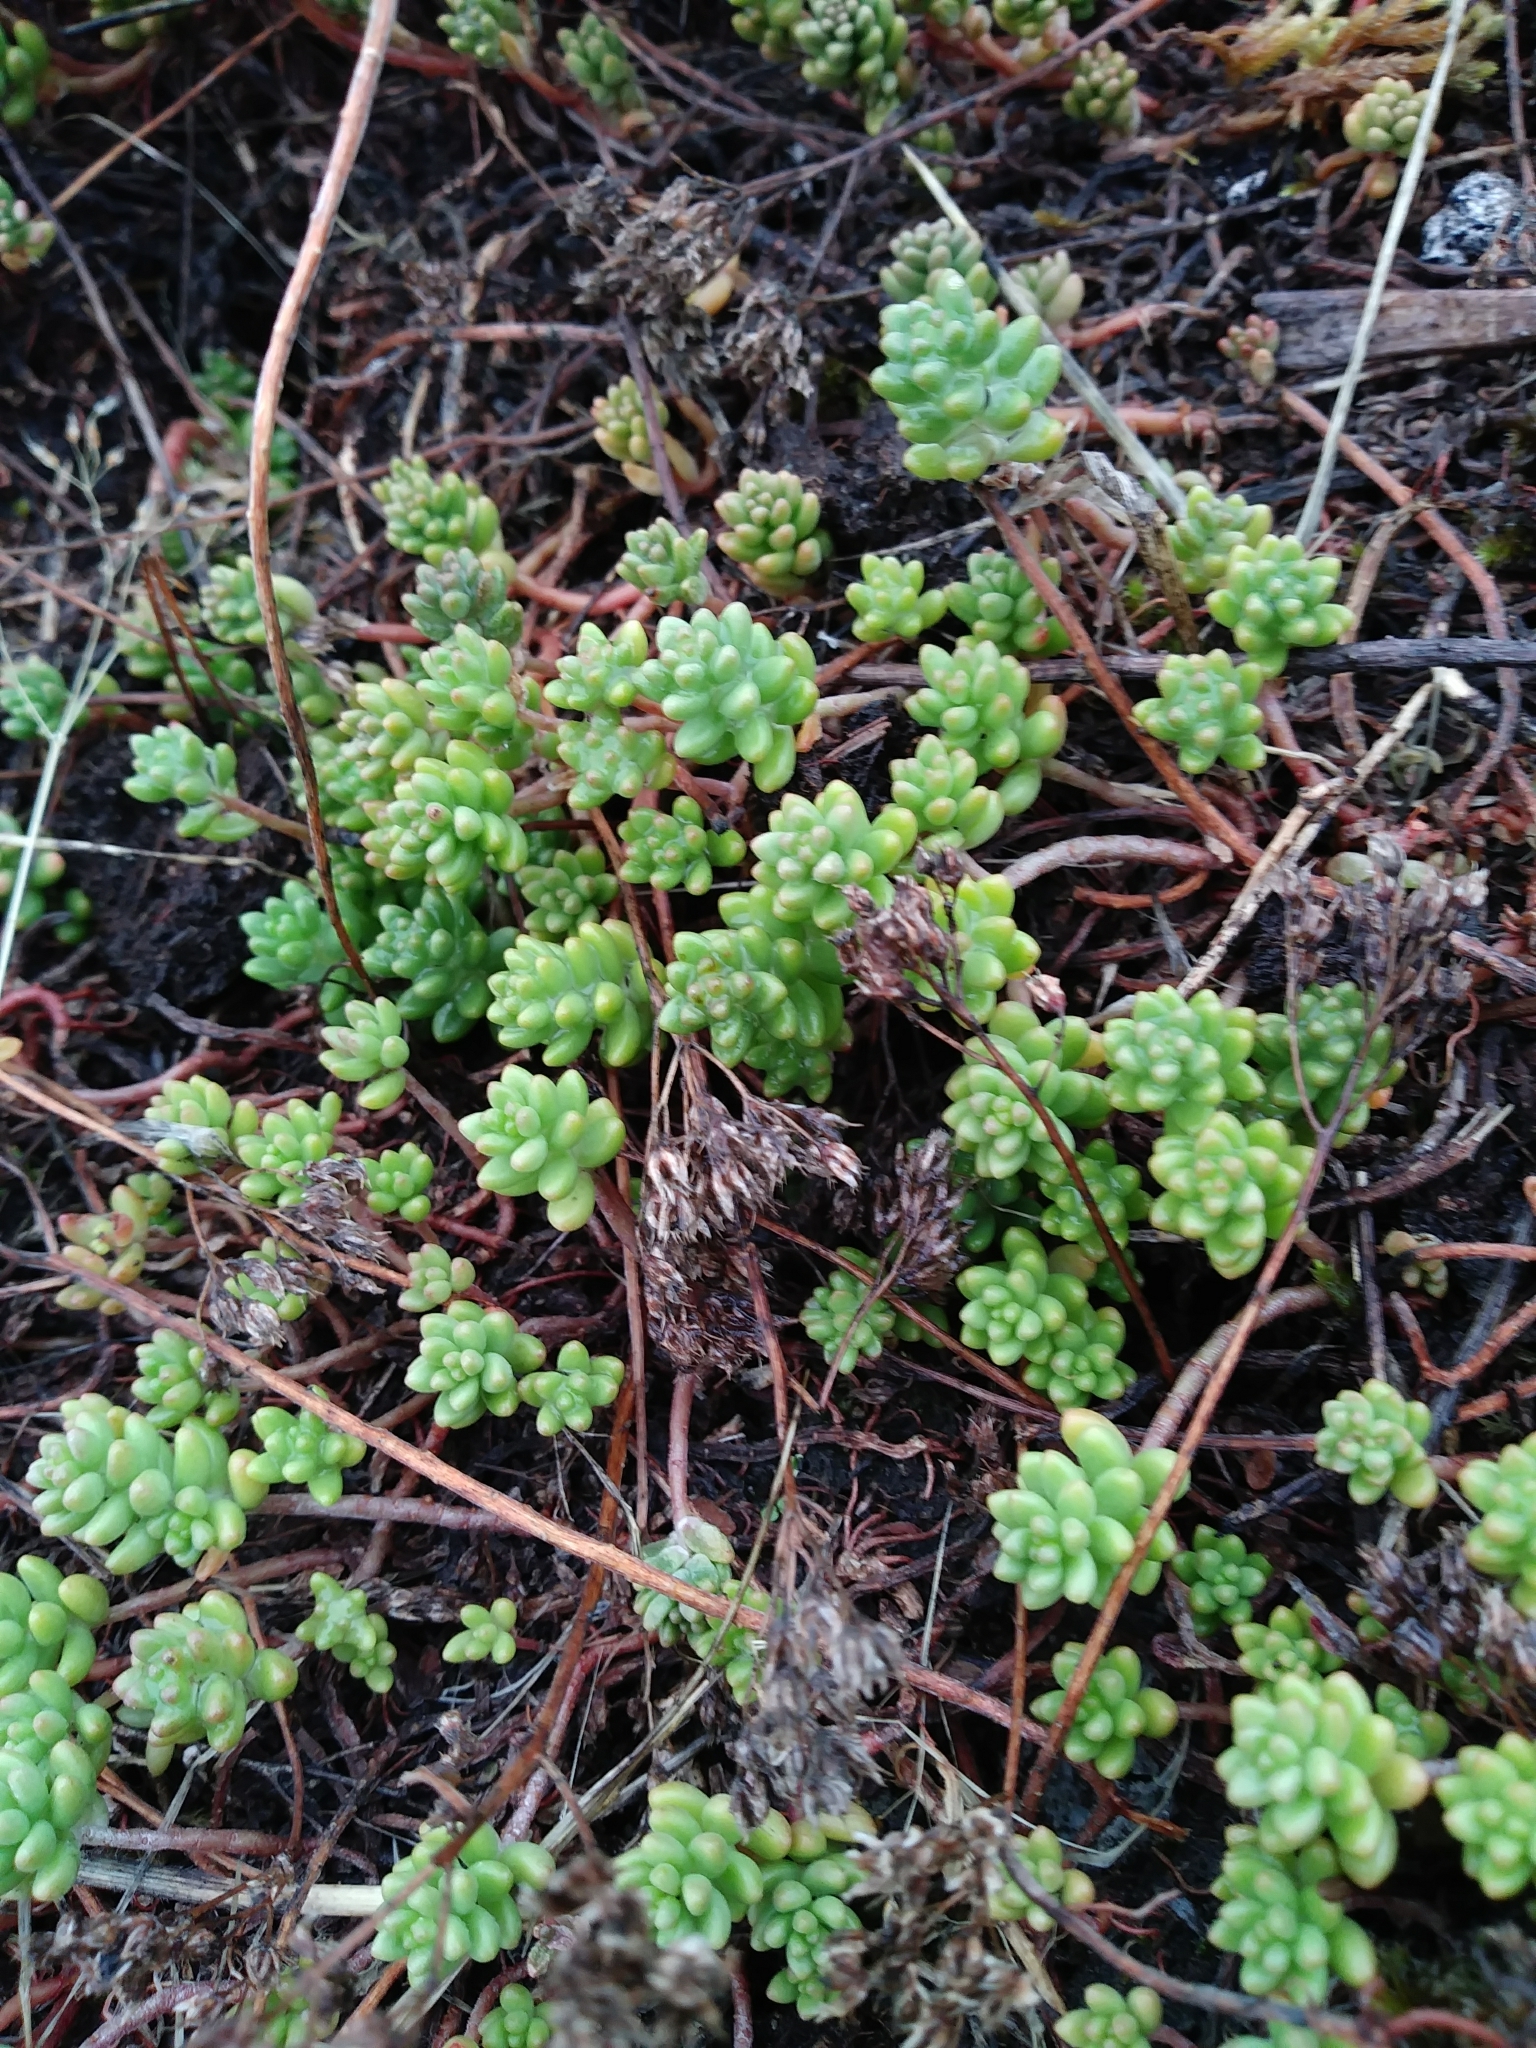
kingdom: Plantae
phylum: Tracheophyta
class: Magnoliopsida
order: Saxifragales
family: Crassulaceae
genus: Sedum
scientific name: Sedum album
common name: White stonecrop
